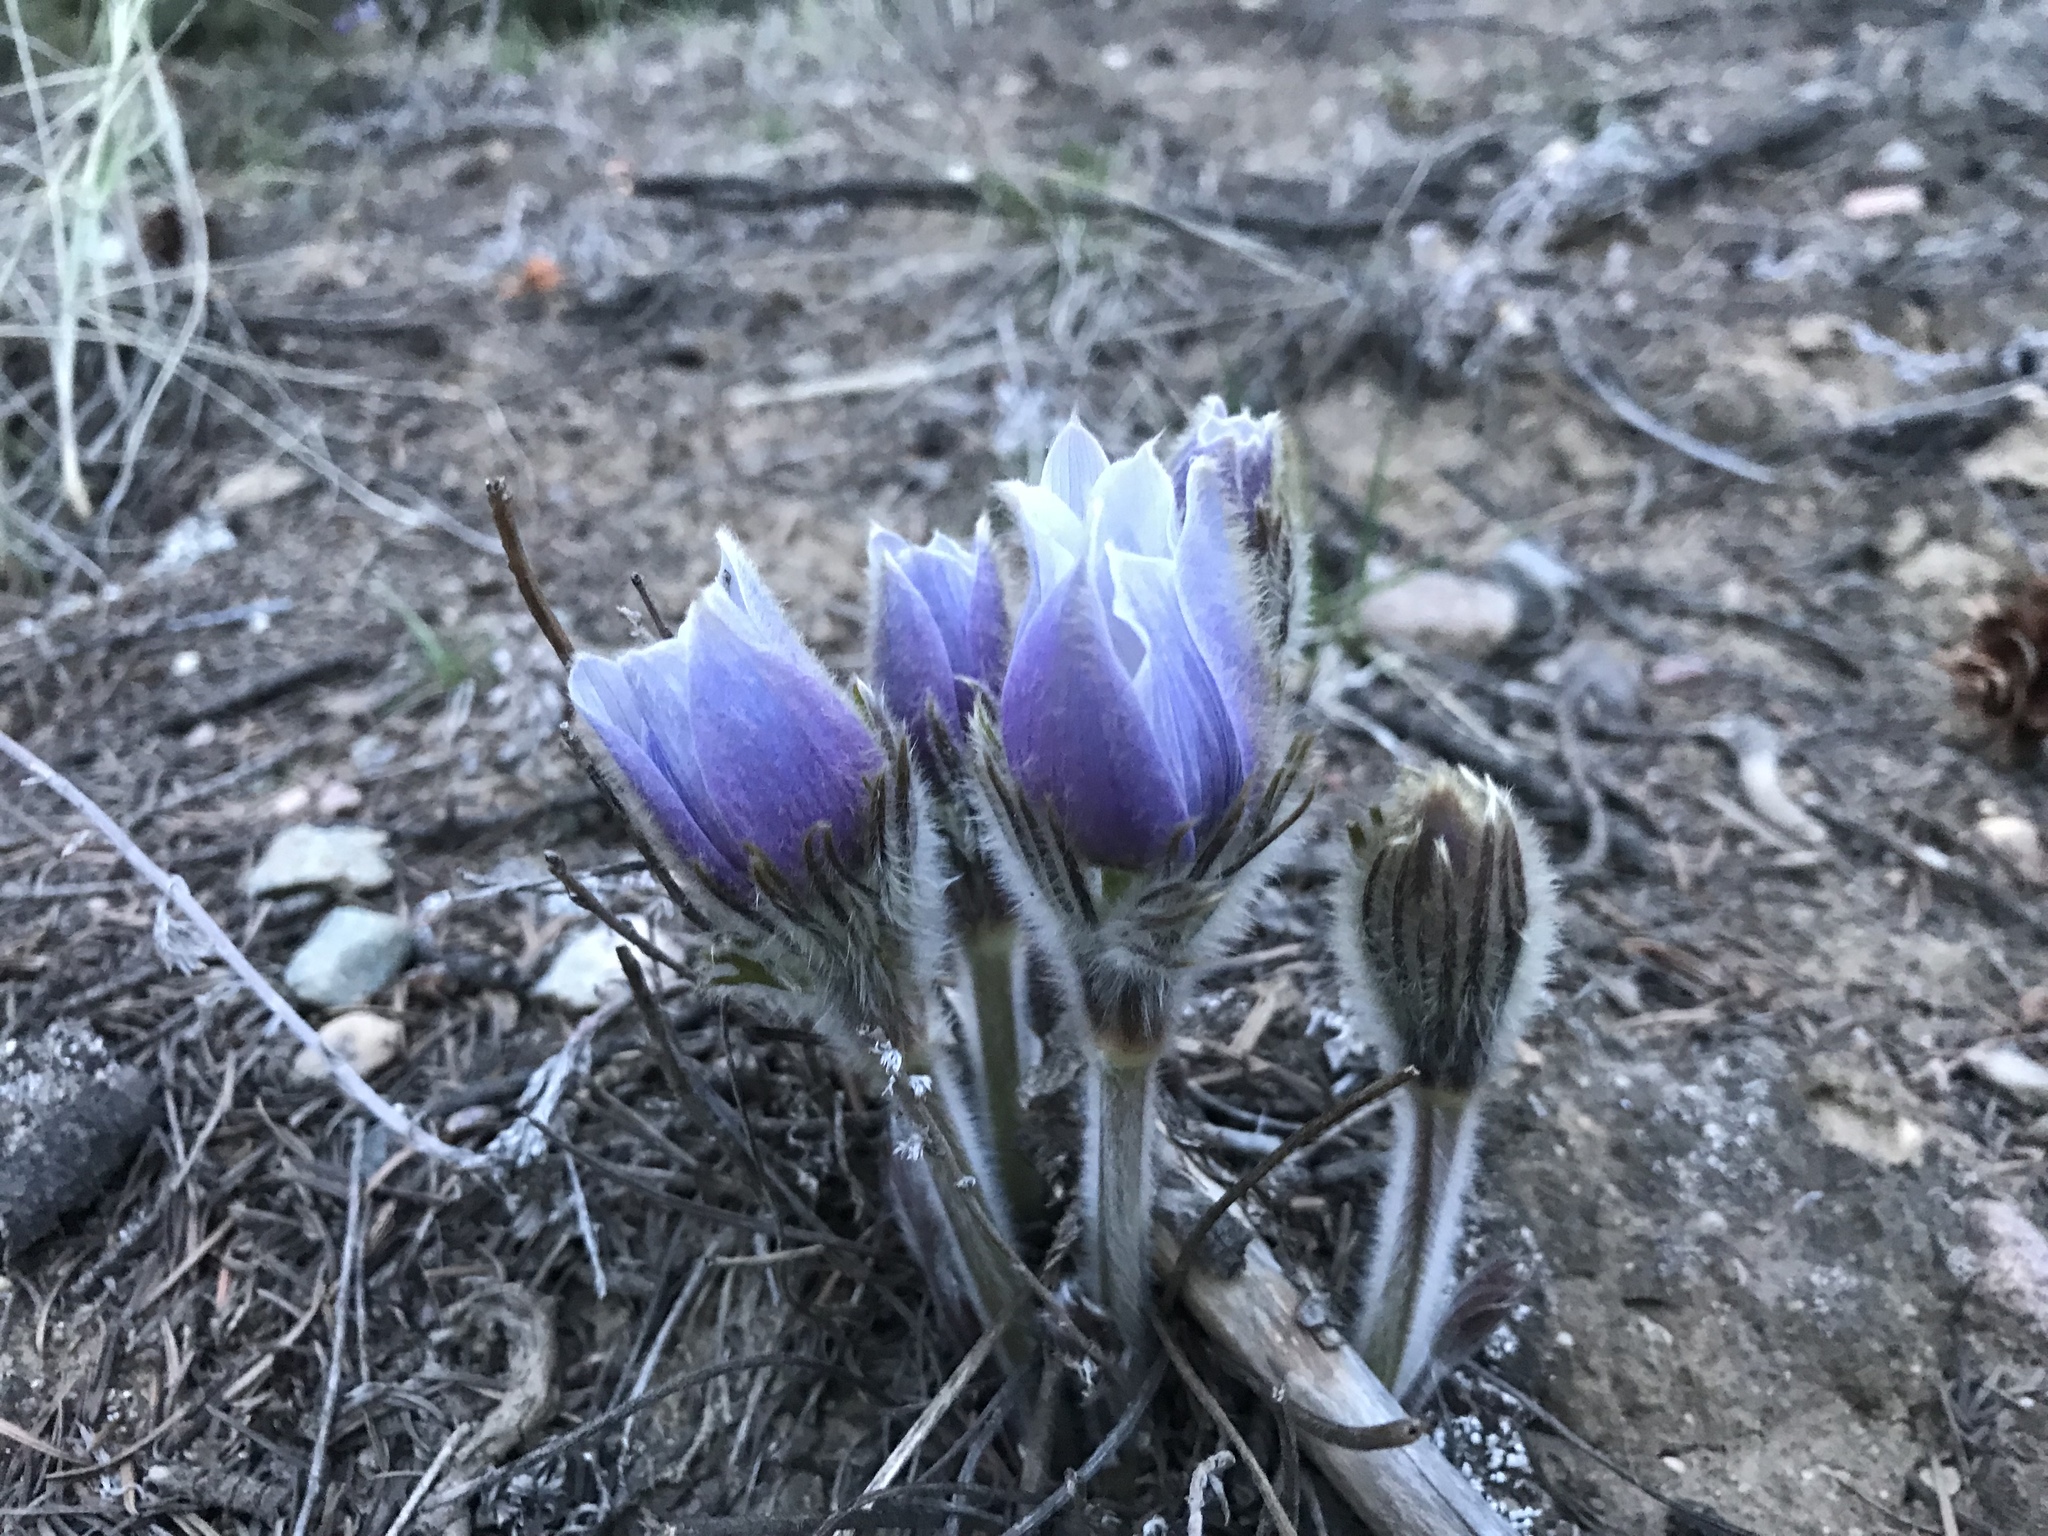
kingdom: Plantae
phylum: Tracheophyta
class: Magnoliopsida
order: Ranunculales
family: Ranunculaceae
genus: Pulsatilla
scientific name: Pulsatilla nuttalliana
